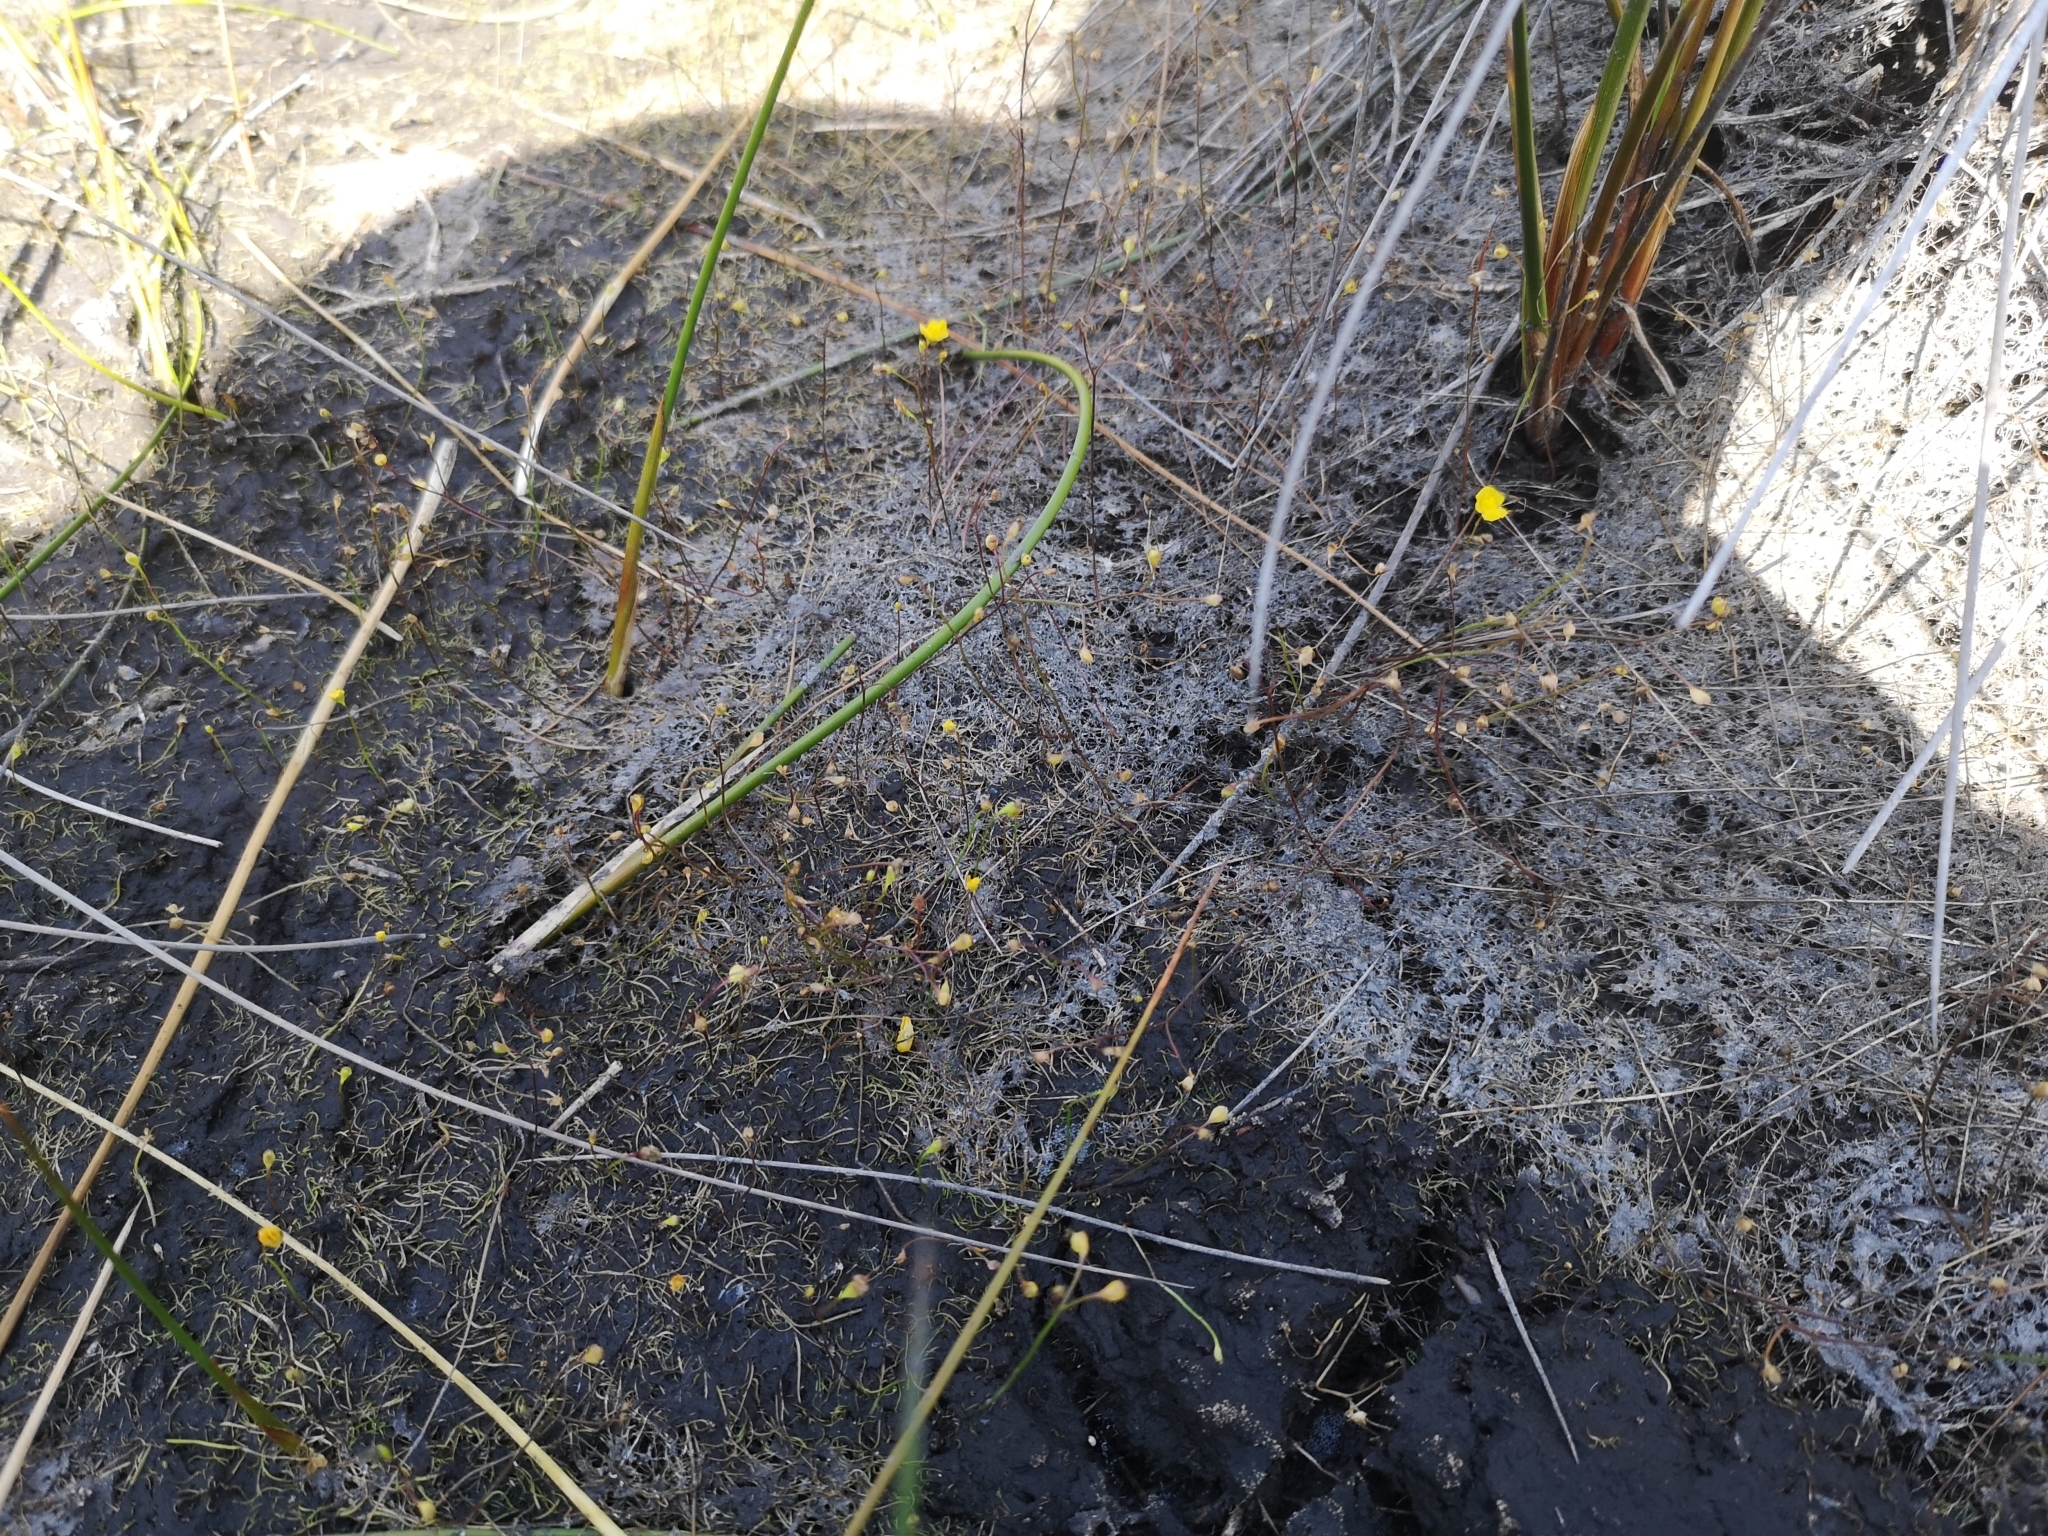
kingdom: Plantae
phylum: Tracheophyta
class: Magnoliopsida
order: Lamiales
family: Lentibulariaceae
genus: Utricularia
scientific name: Utricularia gibba
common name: Humped bladderwort
